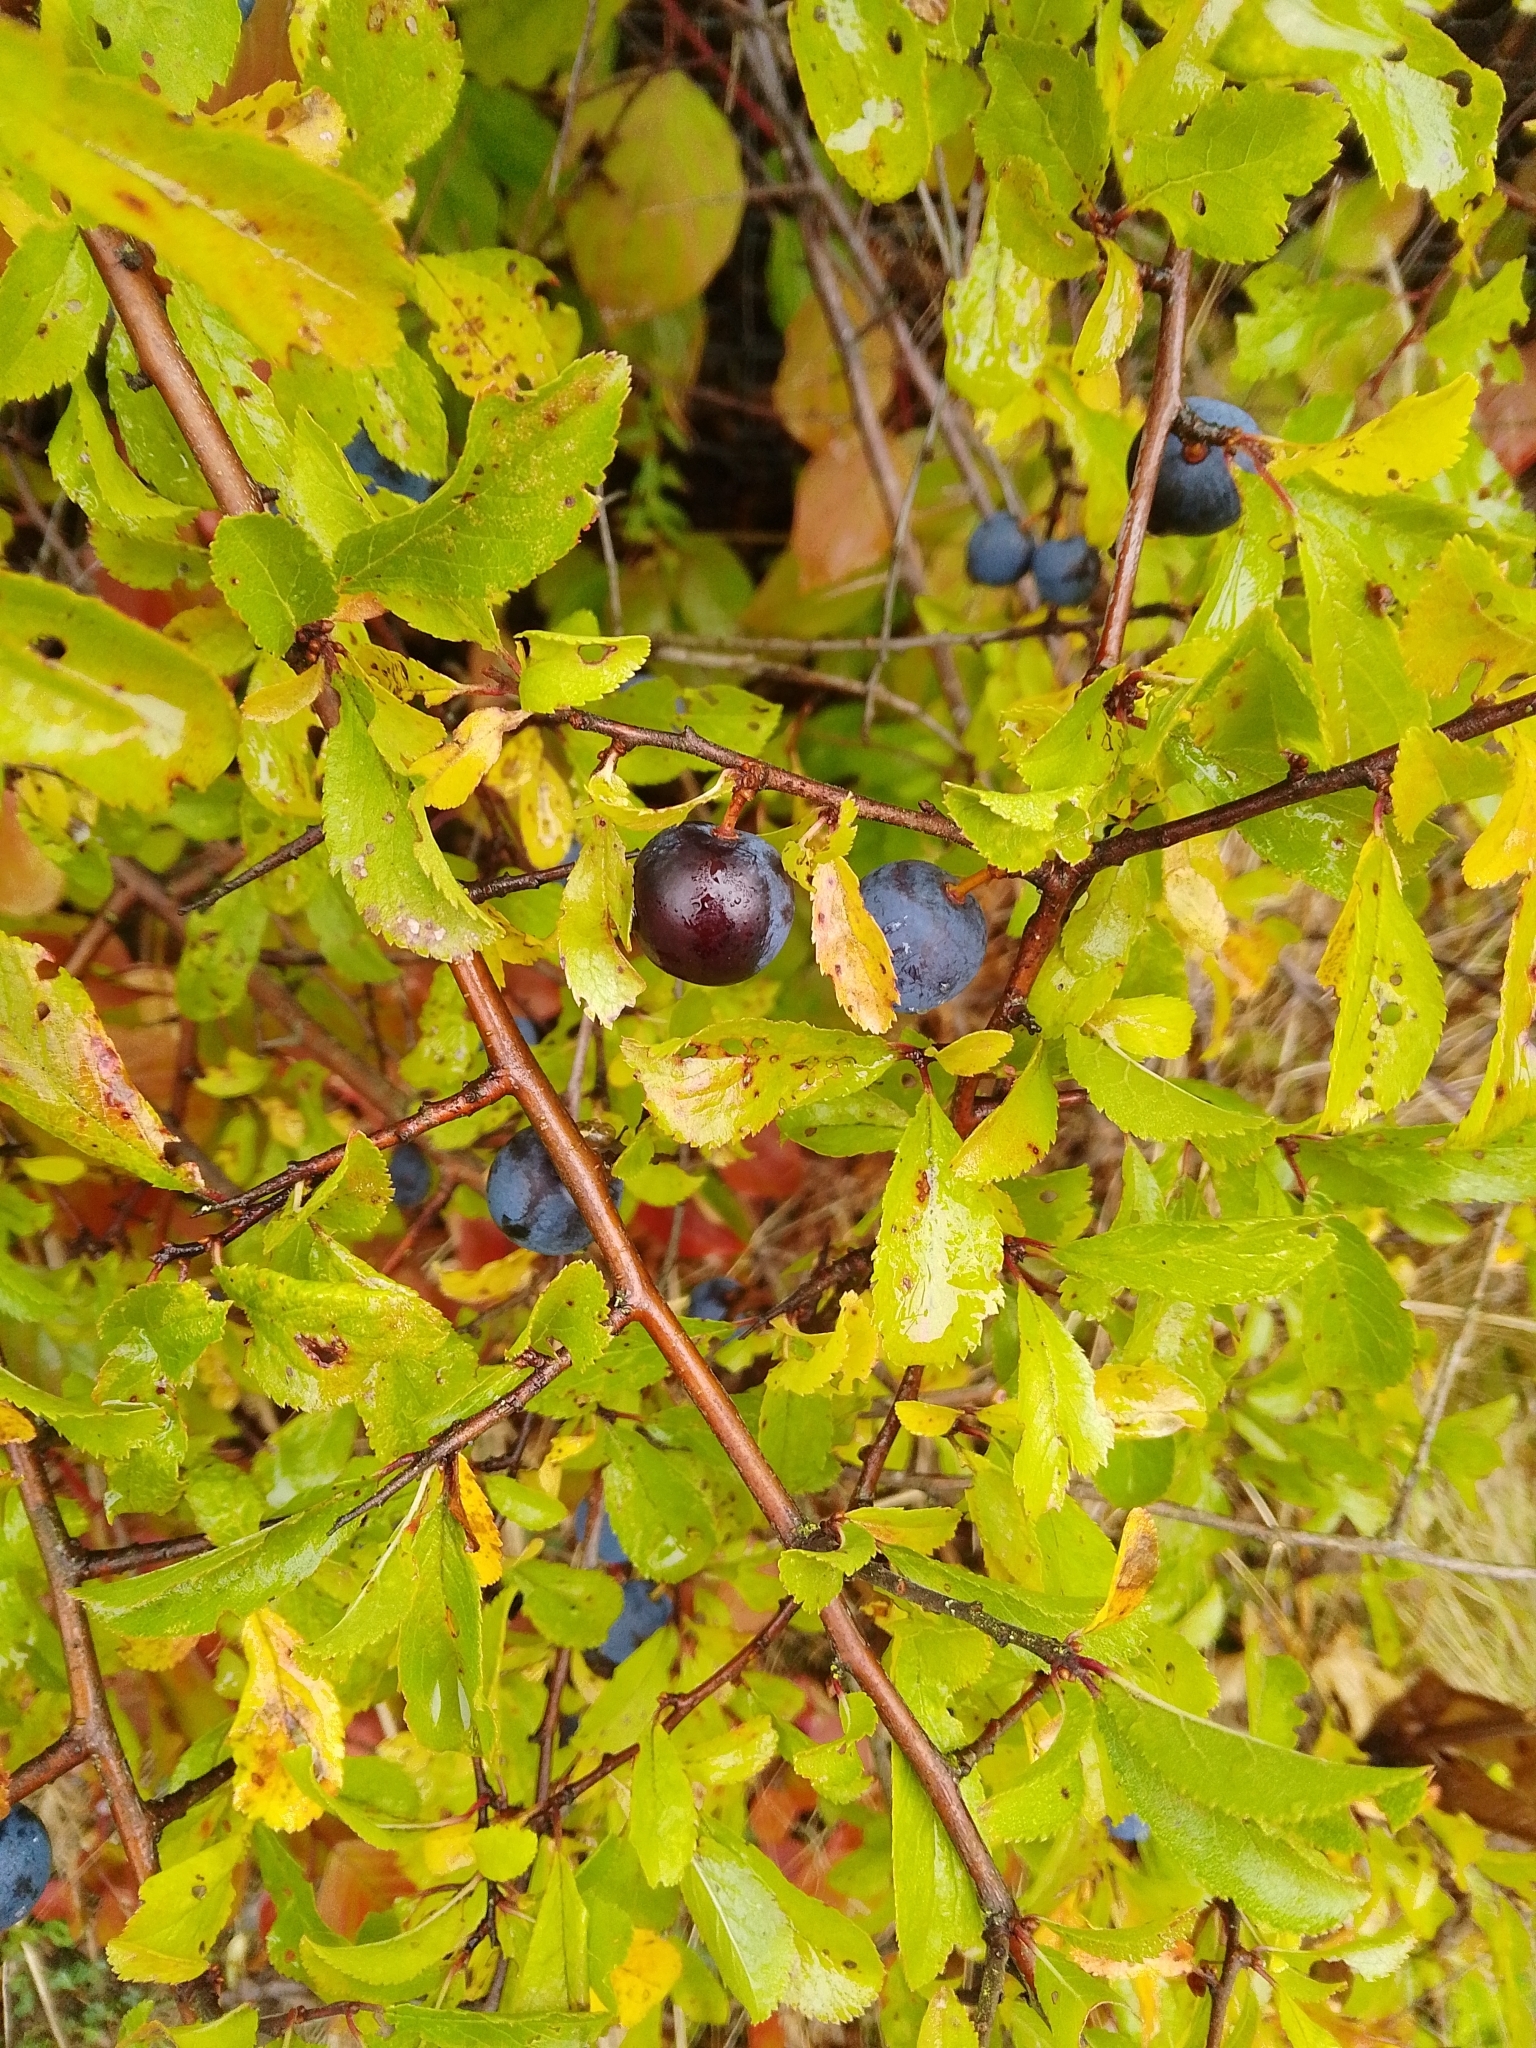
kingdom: Plantae
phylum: Tracheophyta
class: Magnoliopsida
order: Rosales
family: Rosaceae
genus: Prunus
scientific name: Prunus spinosa
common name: Blackthorn
